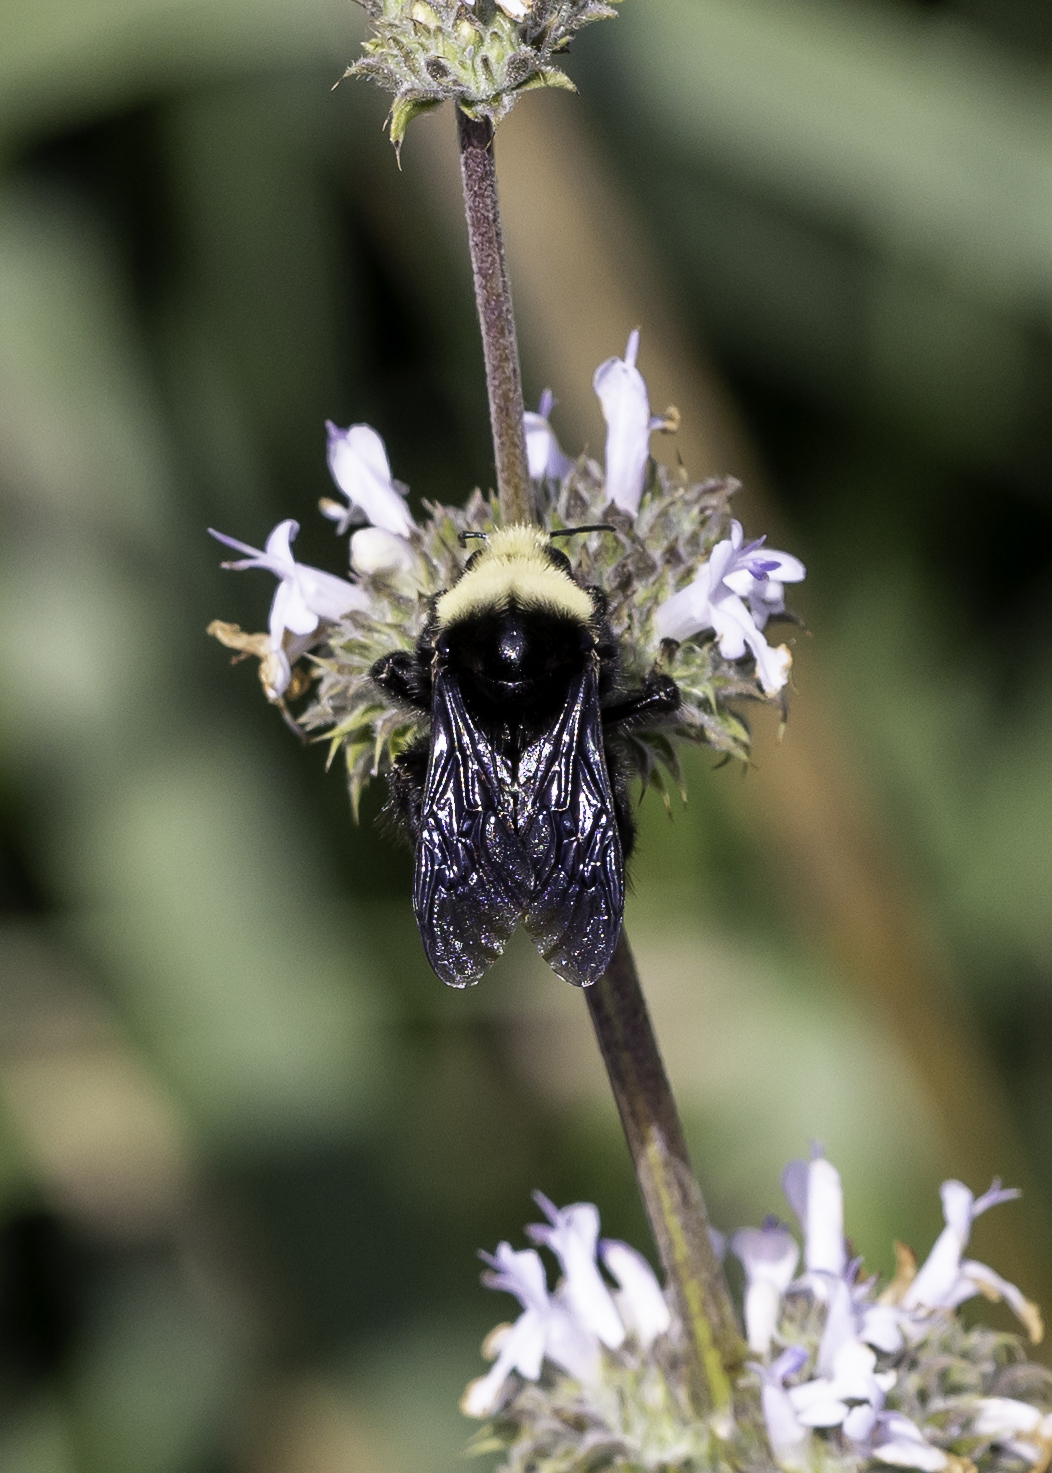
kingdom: Animalia
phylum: Arthropoda
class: Insecta
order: Hymenoptera
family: Apidae
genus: Bombus
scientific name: Bombus vosnesenskii
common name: Vosnesensky bumble bee
